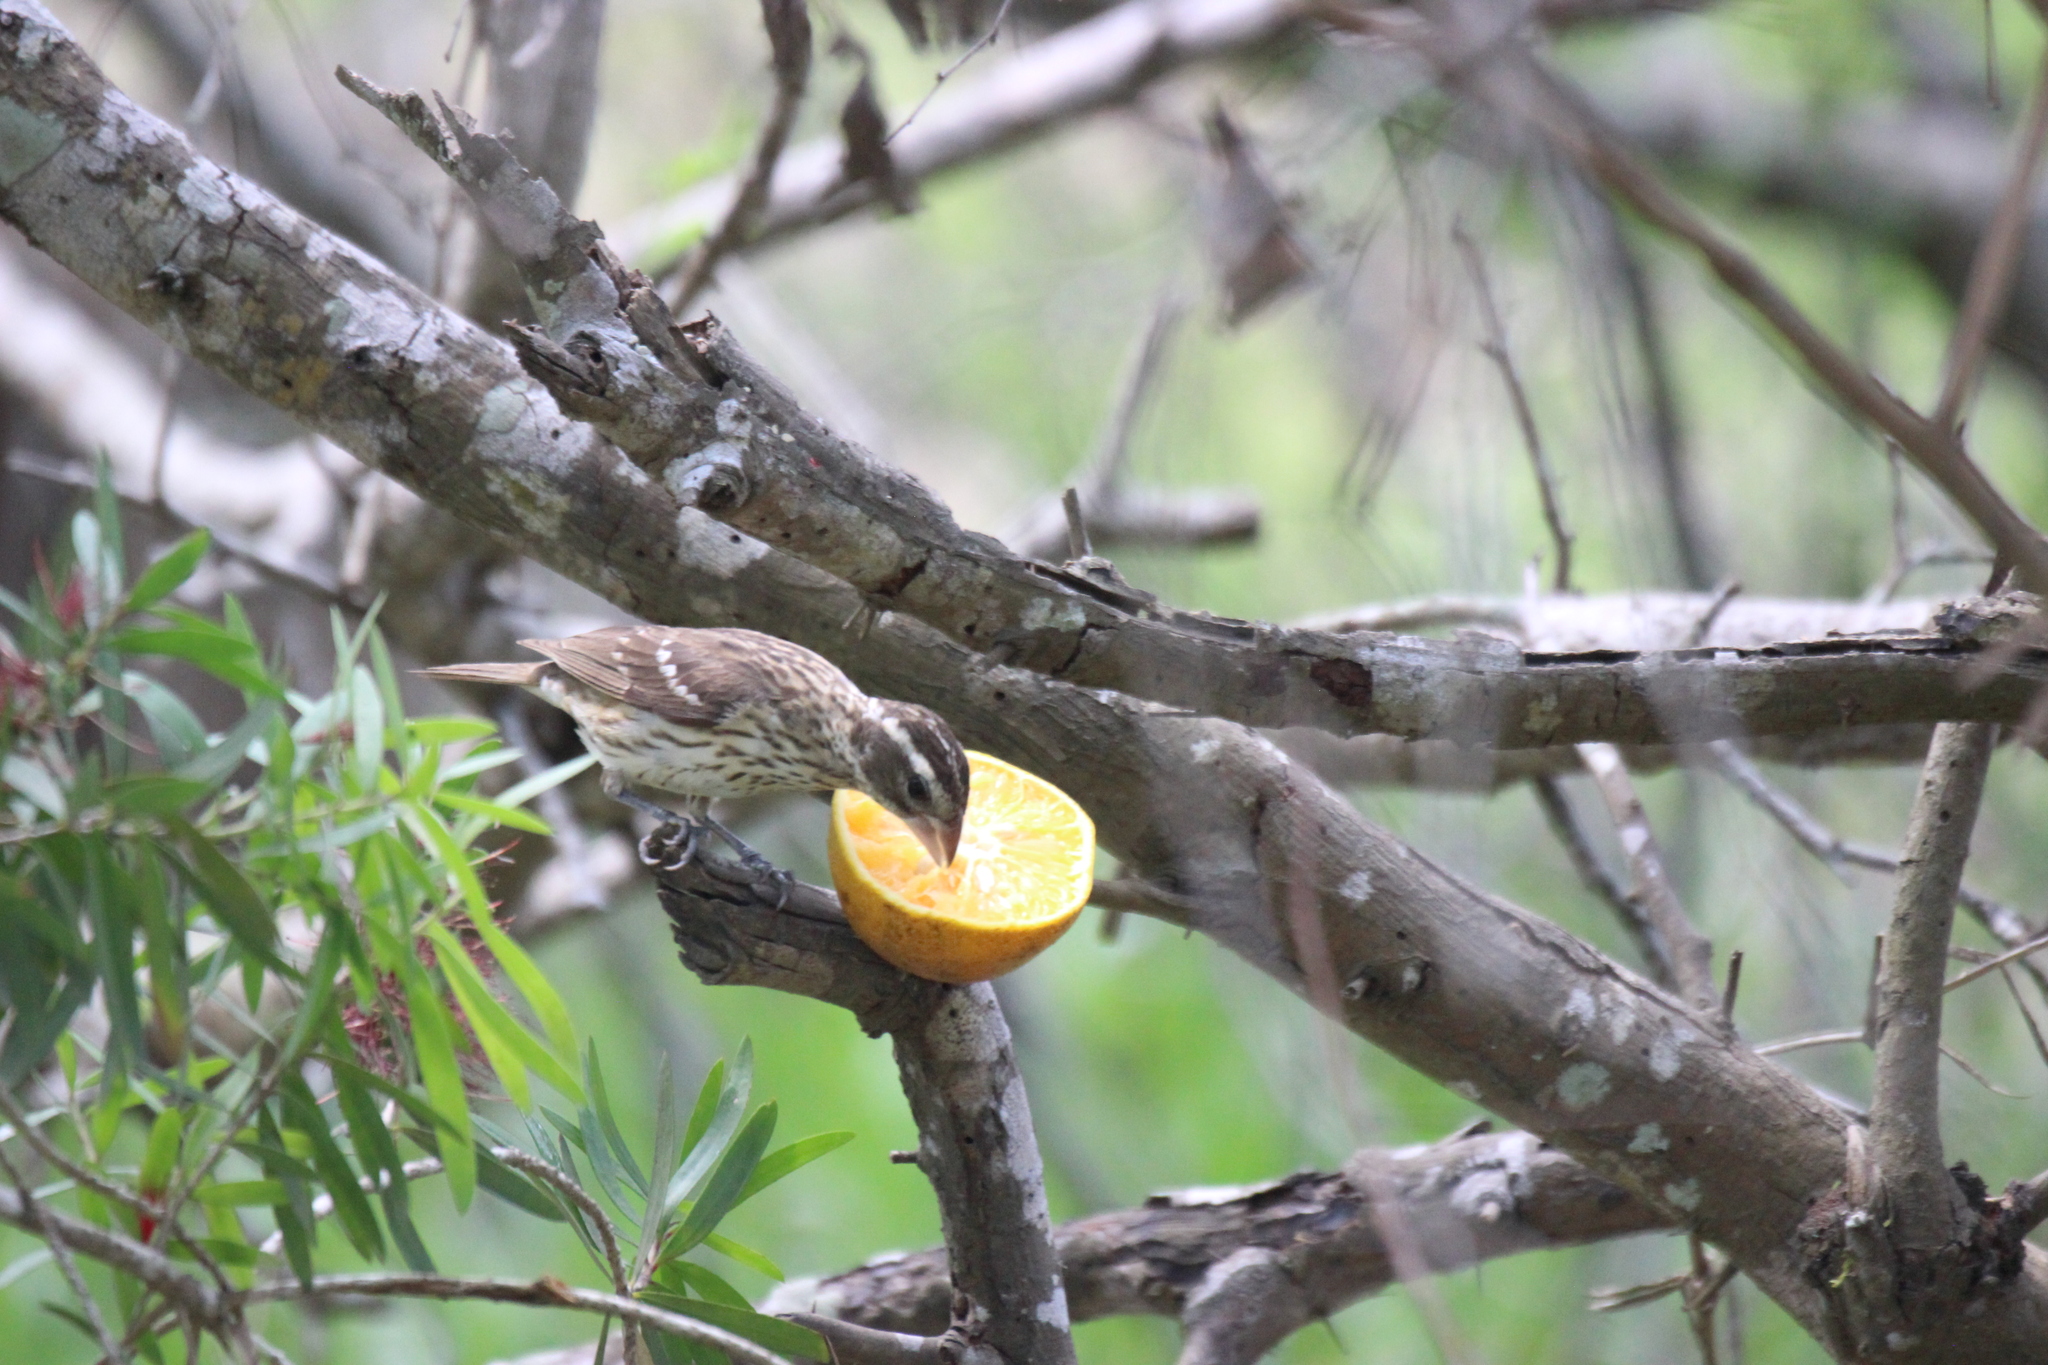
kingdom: Animalia
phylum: Chordata
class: Aves
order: Passeriformes
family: Cardinalidae
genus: Pheucticus
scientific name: Pheucticus ludovicianus
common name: Rose-breasted grosbeak
